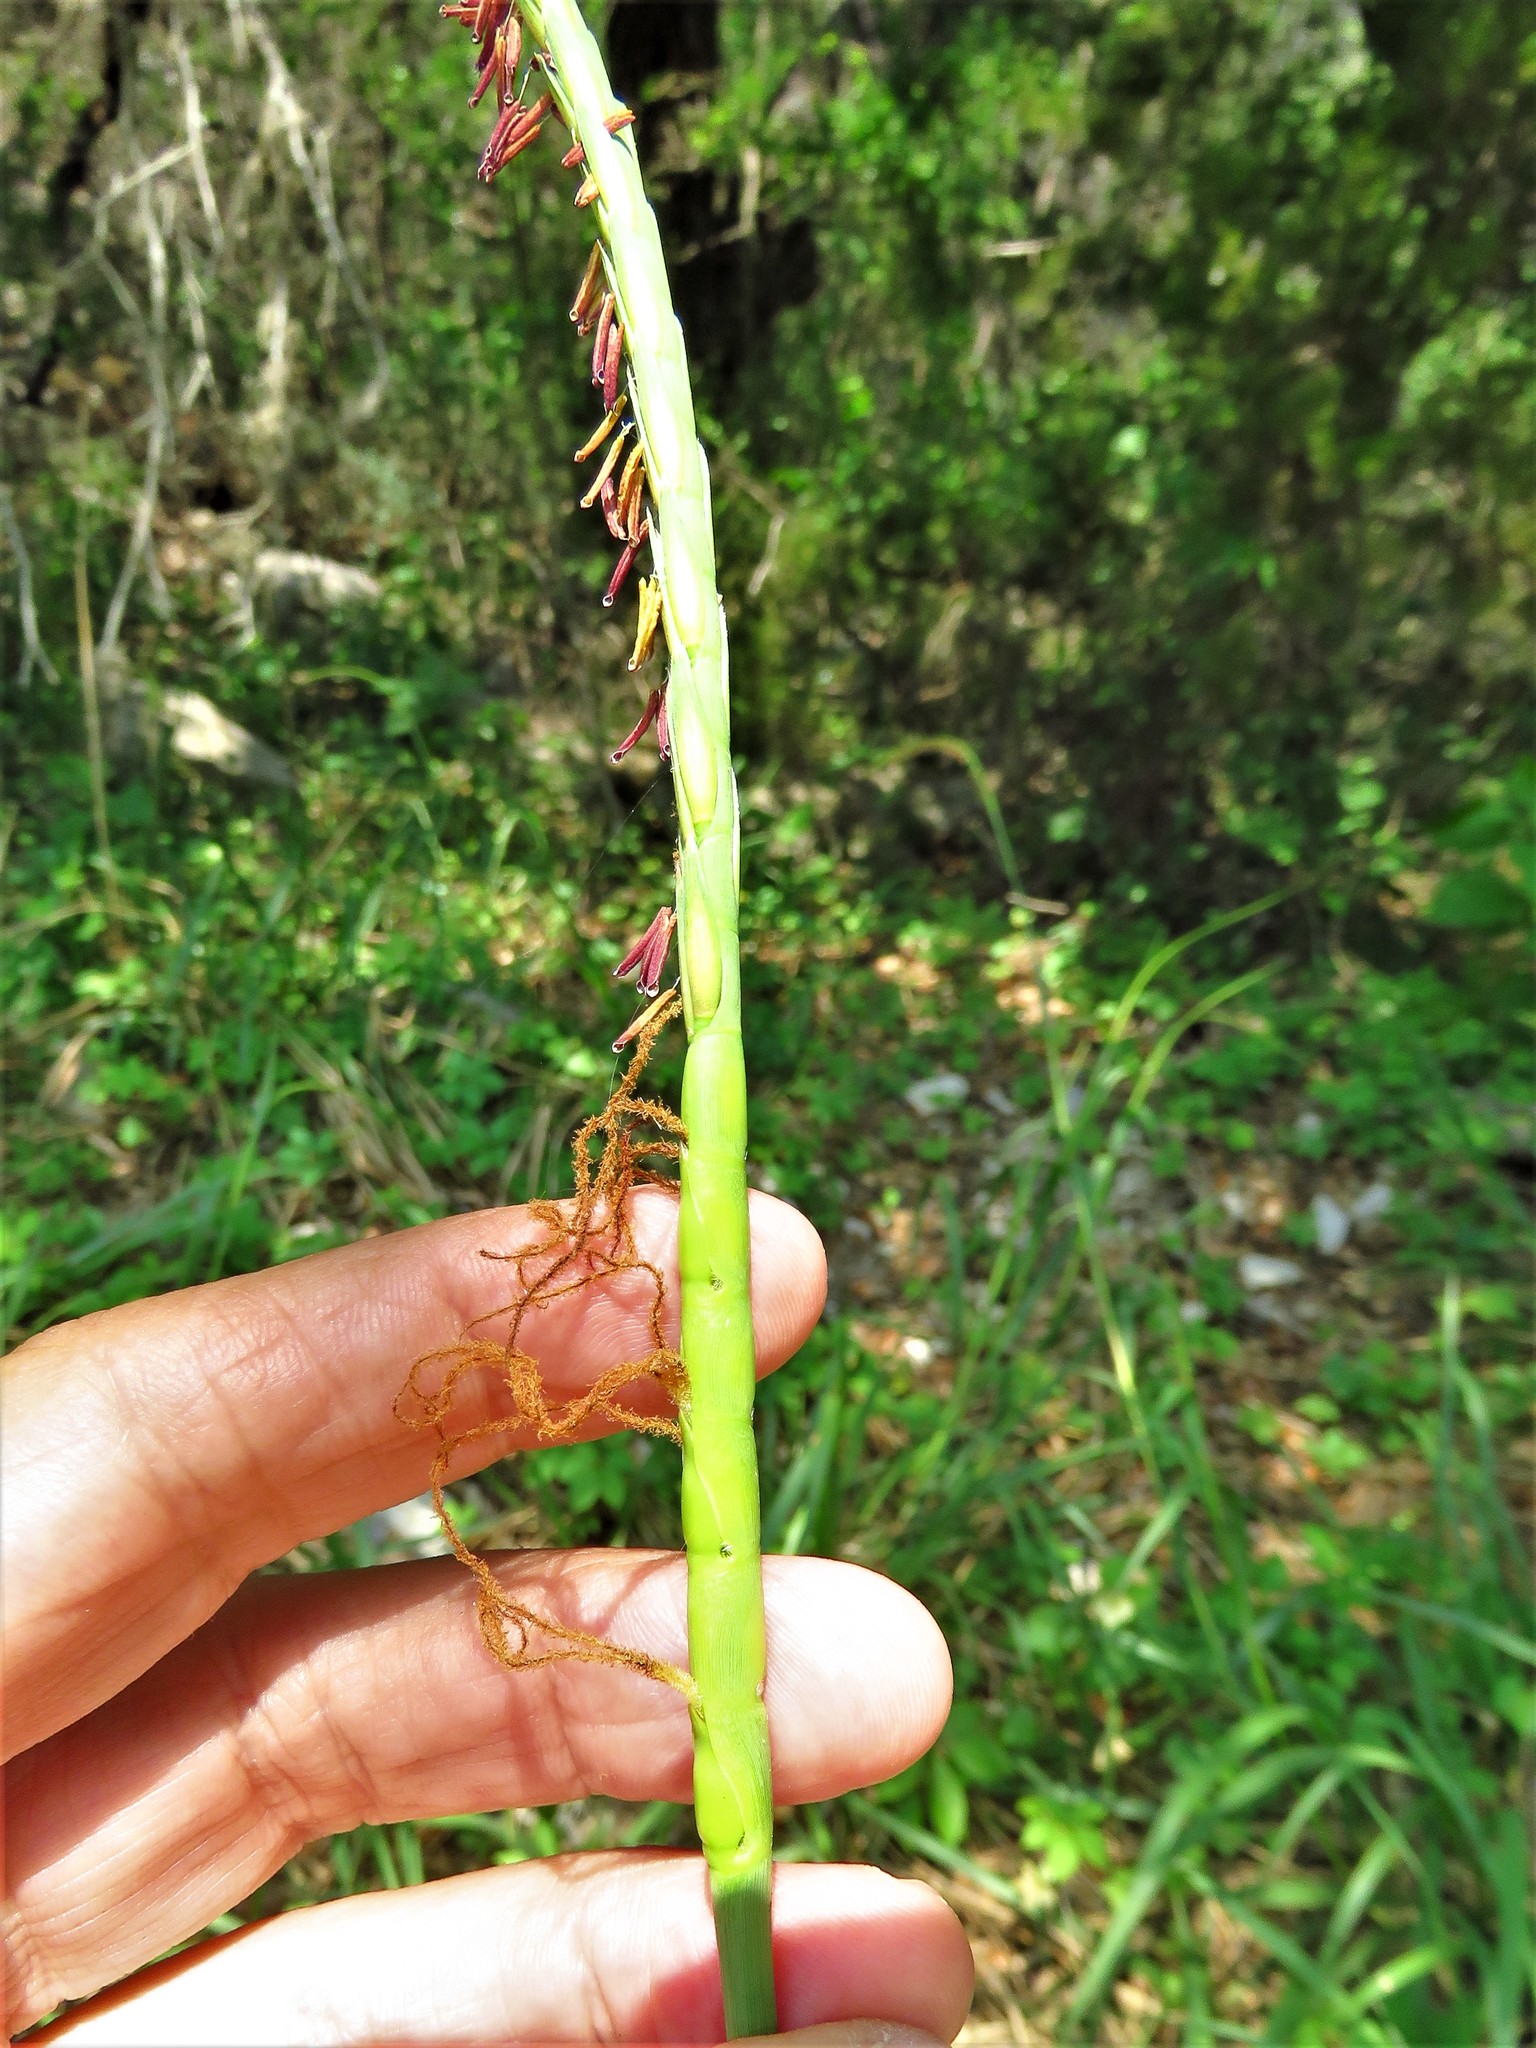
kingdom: Plantae
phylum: Tracheophyta
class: Liliopsida
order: Poales
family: Poaceae
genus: Tripsacum
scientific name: Tripsacum dactyloides
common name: Buffalo-grass
